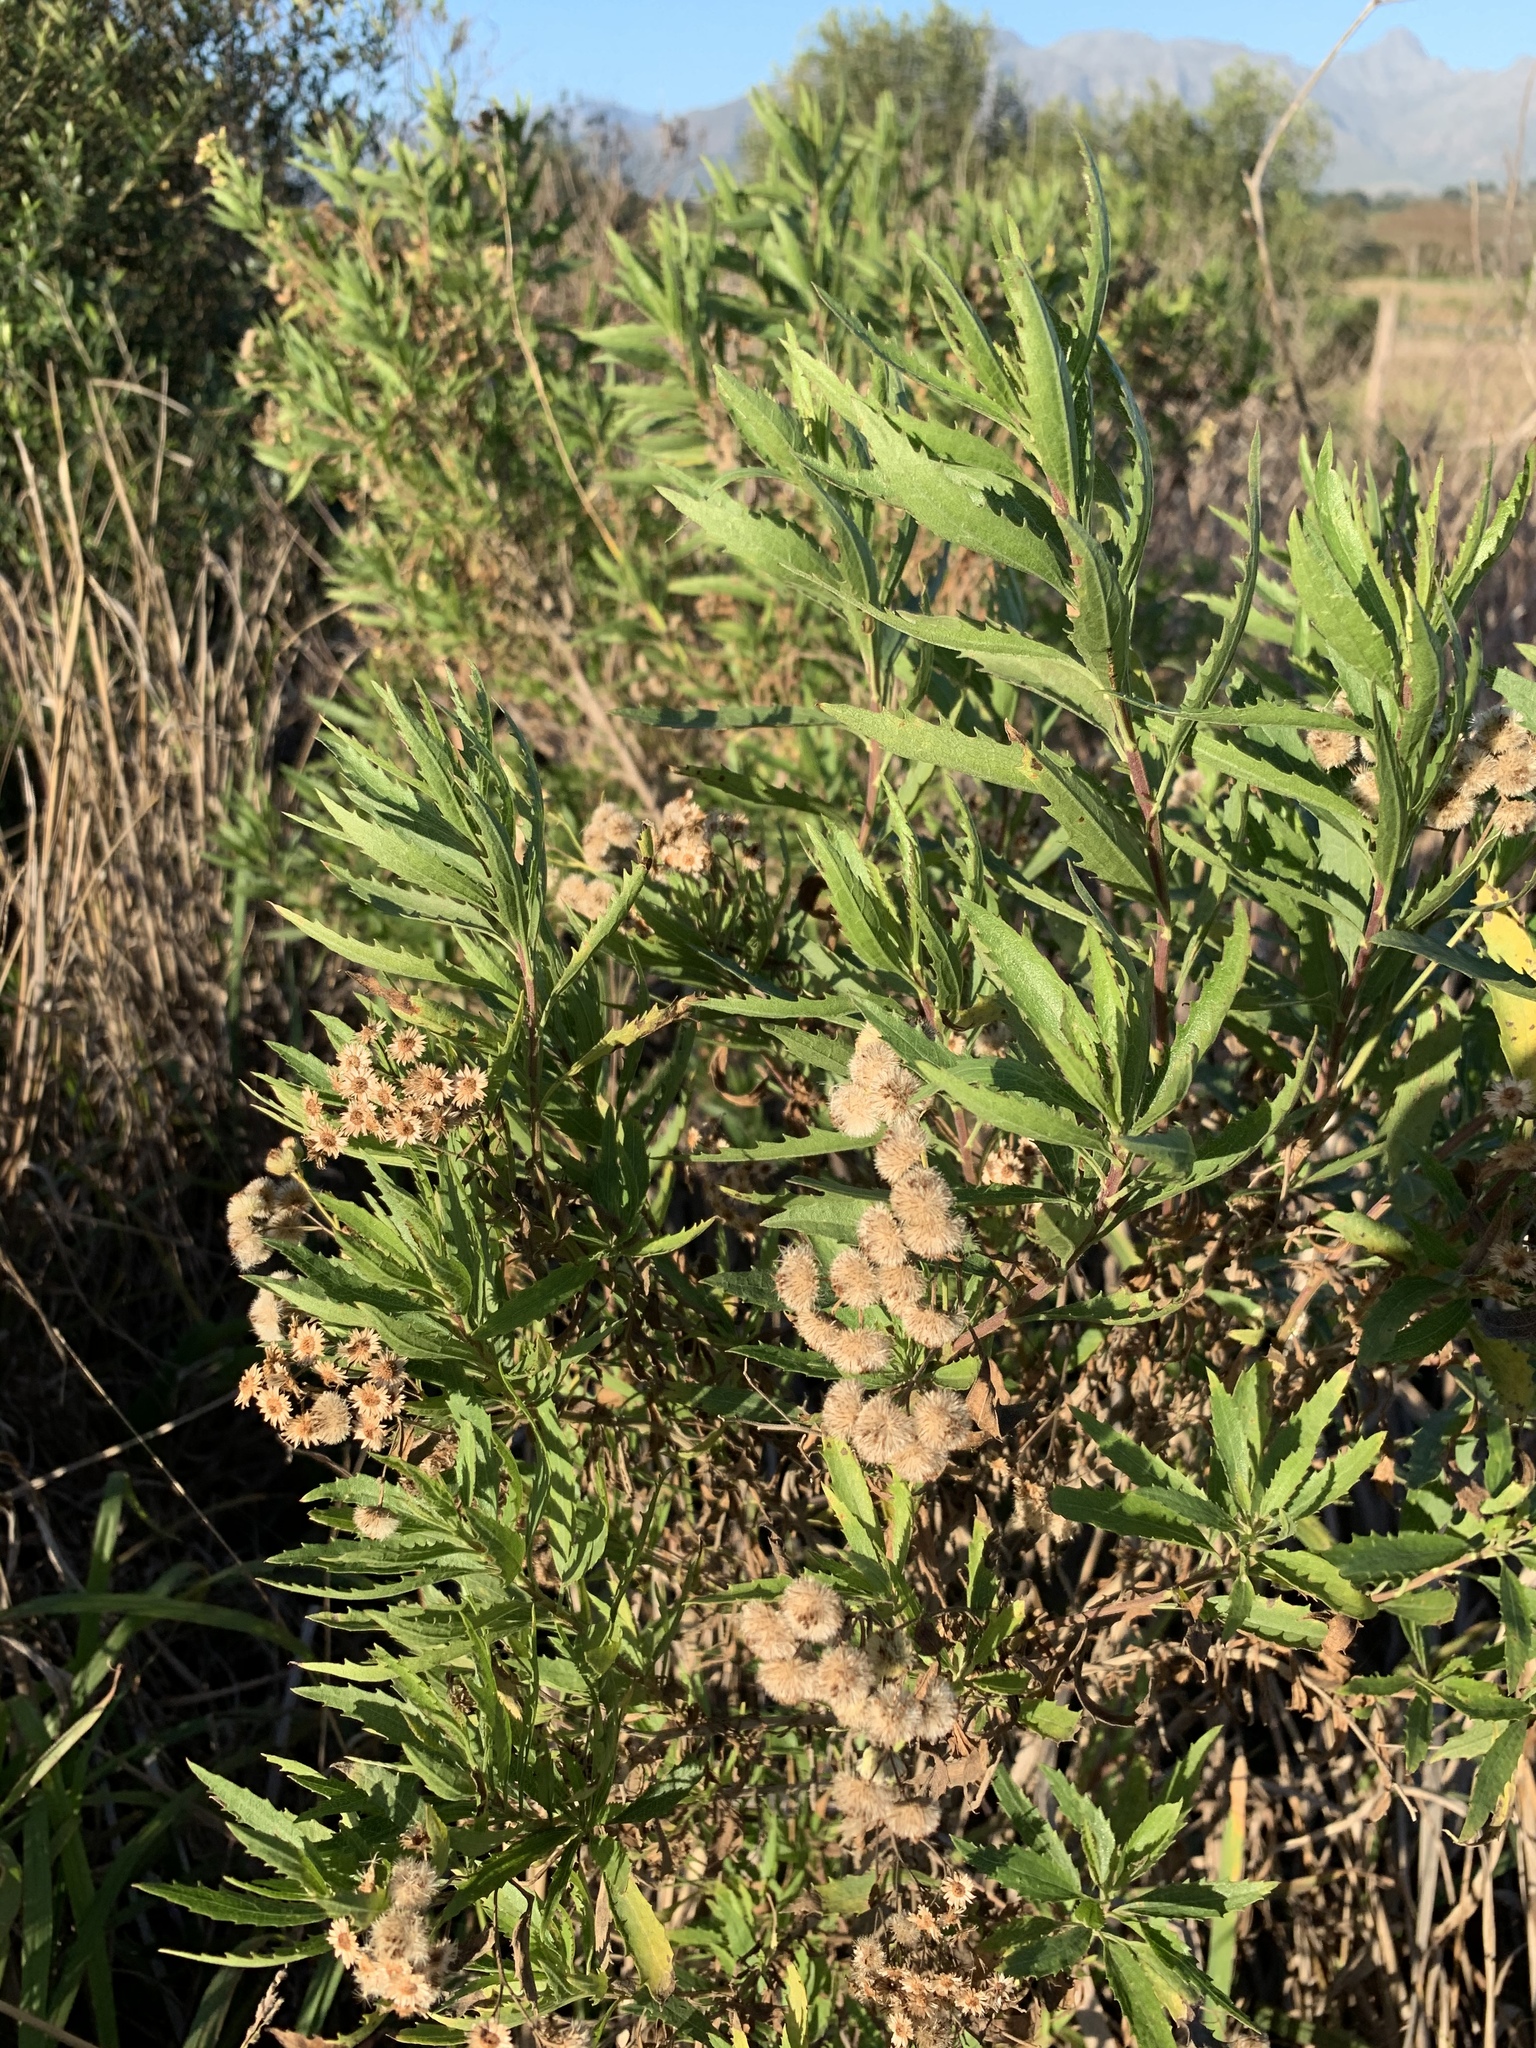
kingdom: Plantae
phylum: Tracheophyta
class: Magnoliopsida
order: Asterales
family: Asteraceae
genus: Nidorella
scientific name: Nidorella ivifolia
